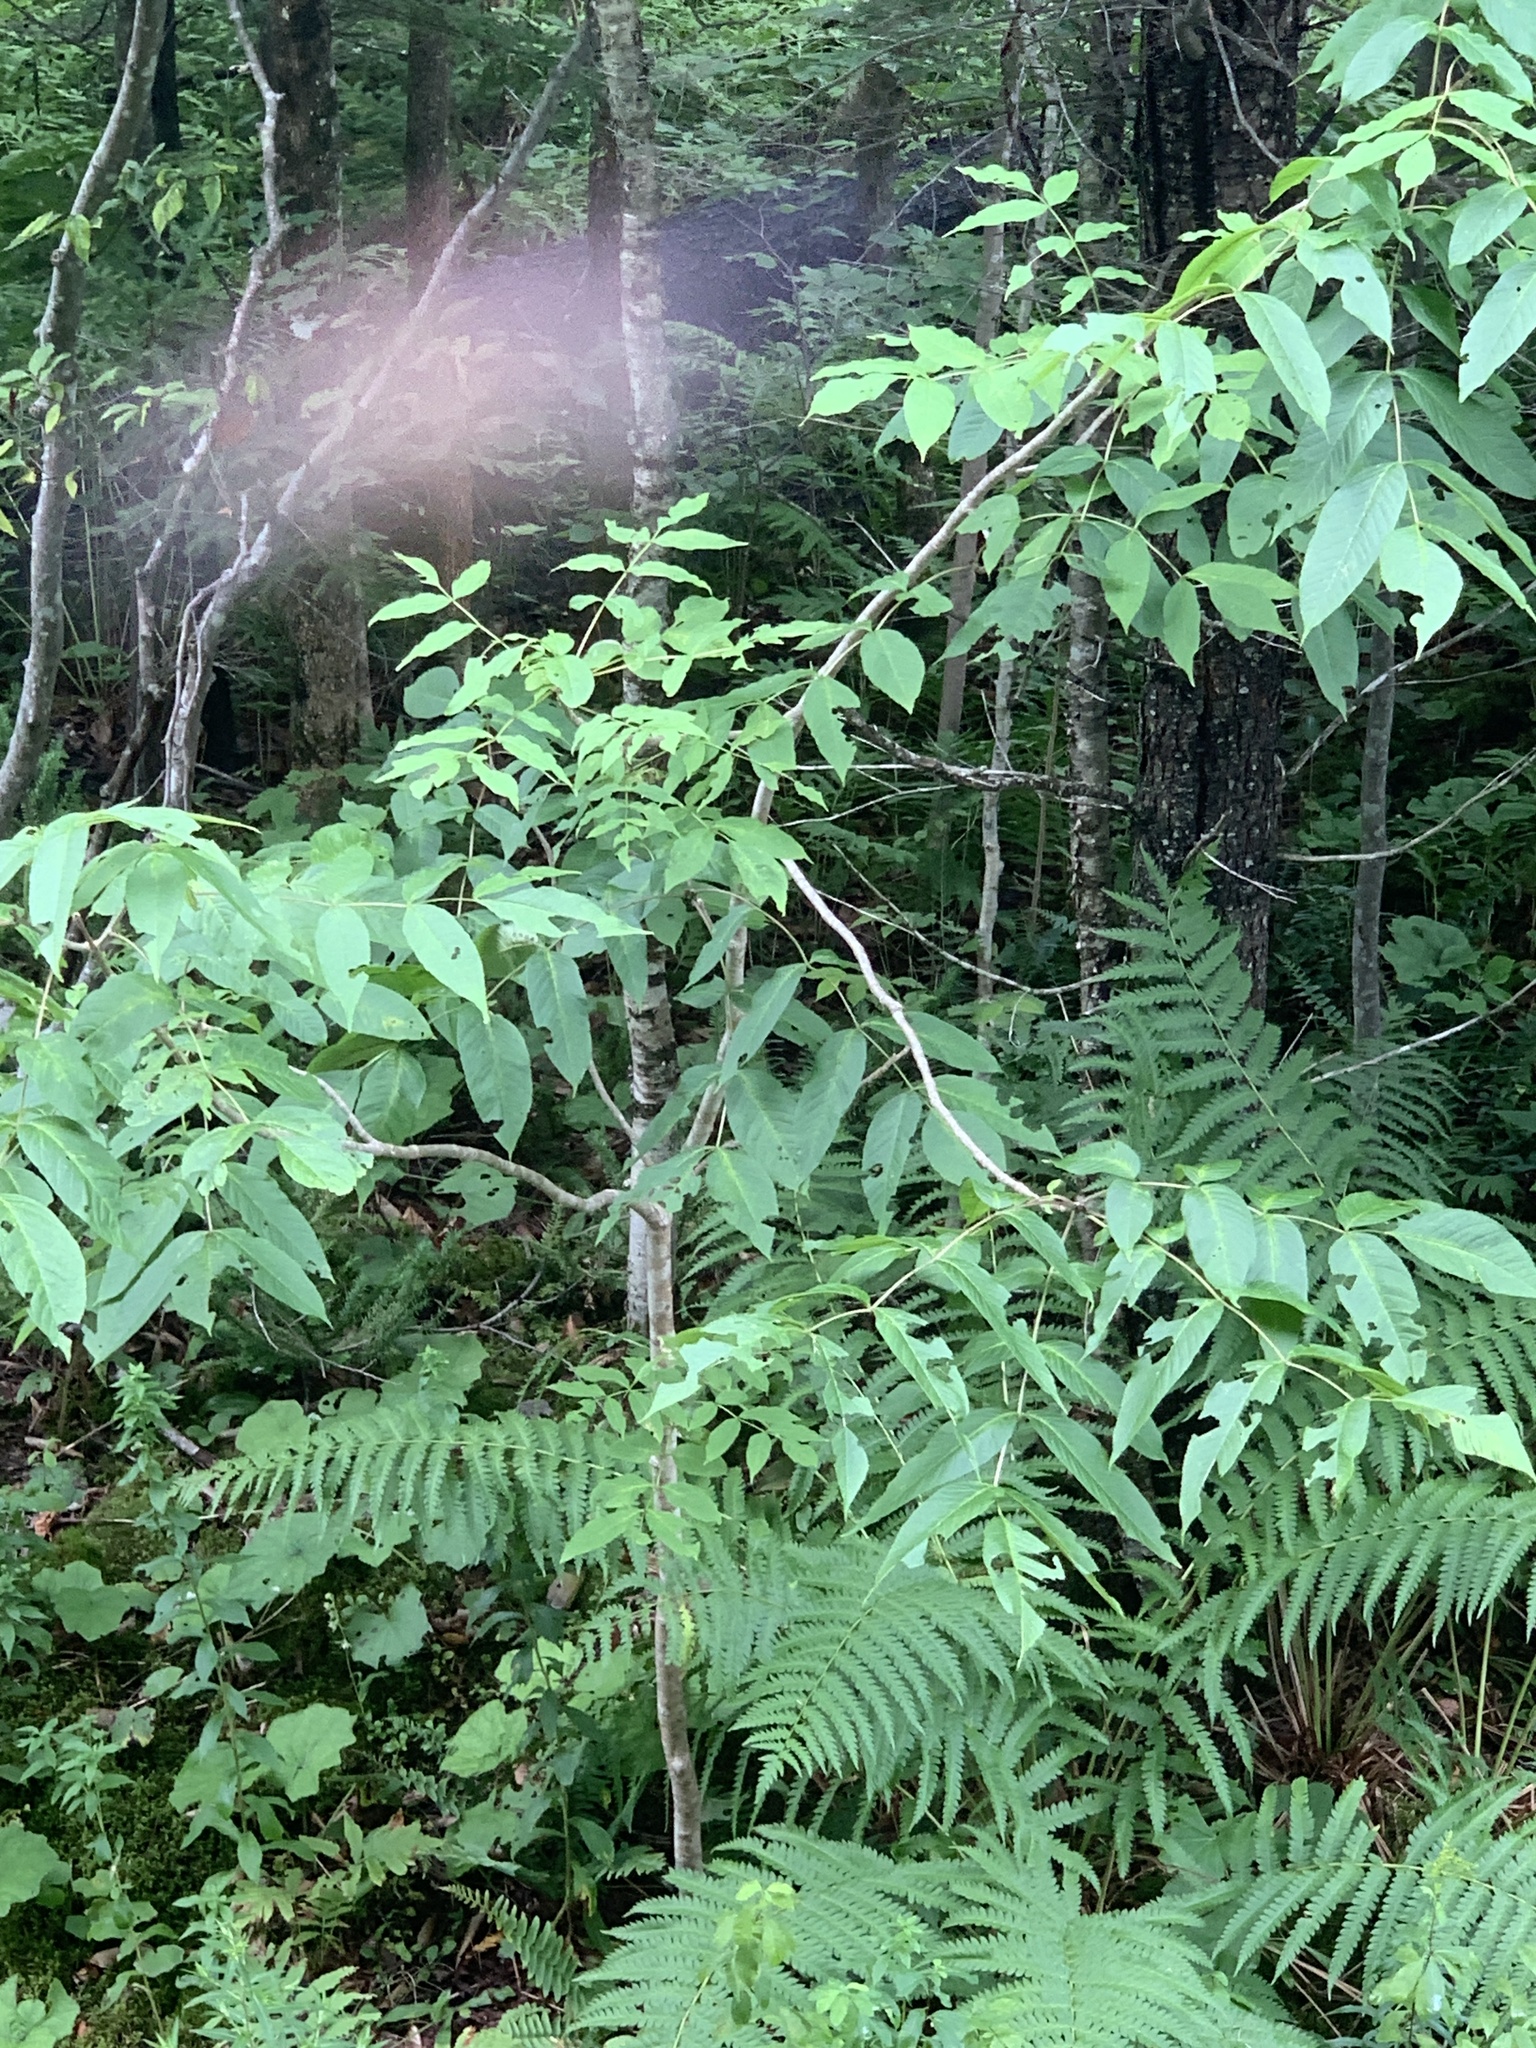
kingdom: Plantae
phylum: Tracheophyta
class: Magnoliopsida
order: Lamiales
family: Oleaceae
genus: Fraxinus
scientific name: Fraxinus nigra
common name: Black ash
